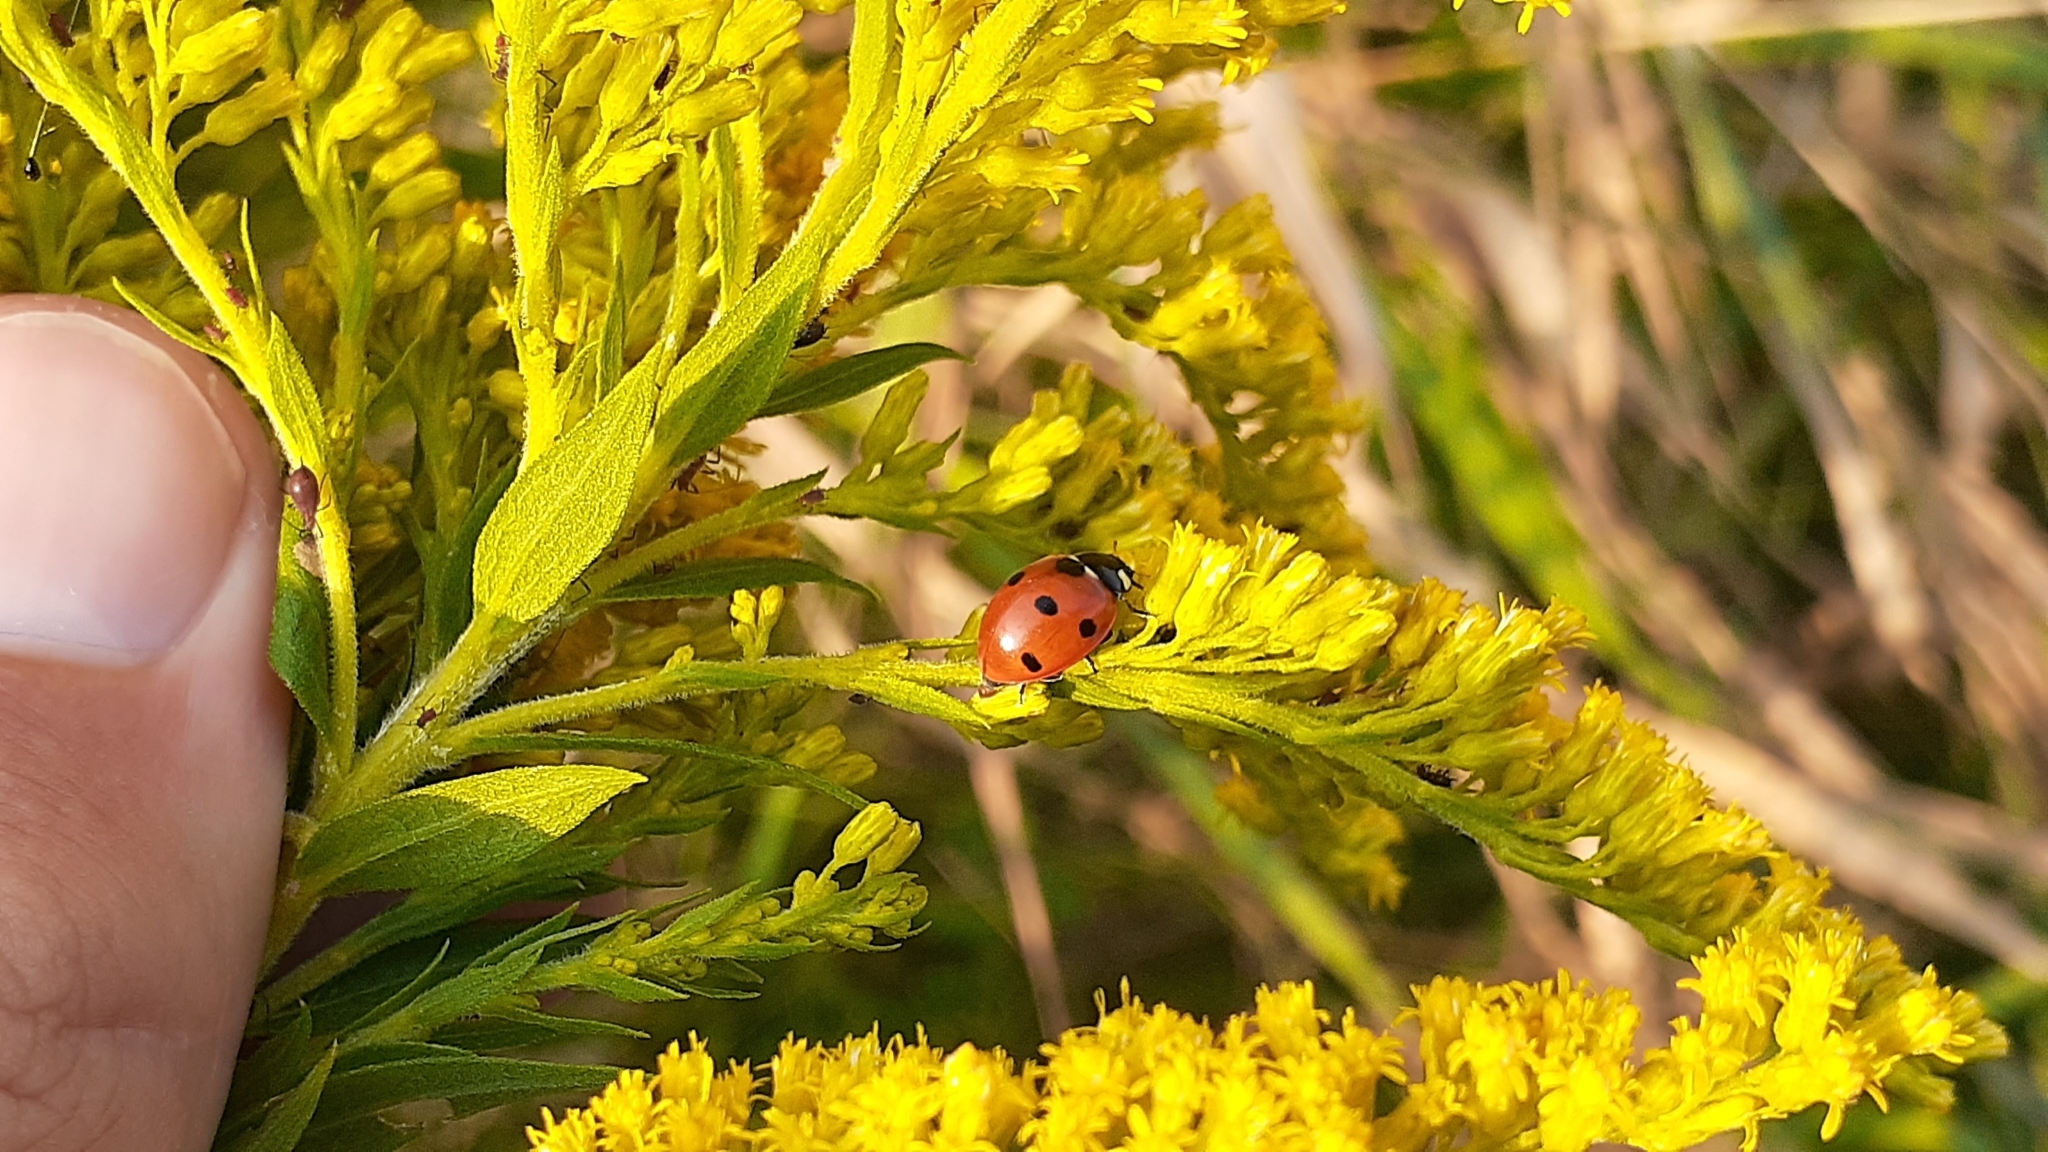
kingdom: Animalia
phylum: Arthropoda
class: Insecta
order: Coleoptera
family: Coccinellidae
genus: Coccinella
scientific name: Coccinella septempunctata
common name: Sevenspotted lady beetle
